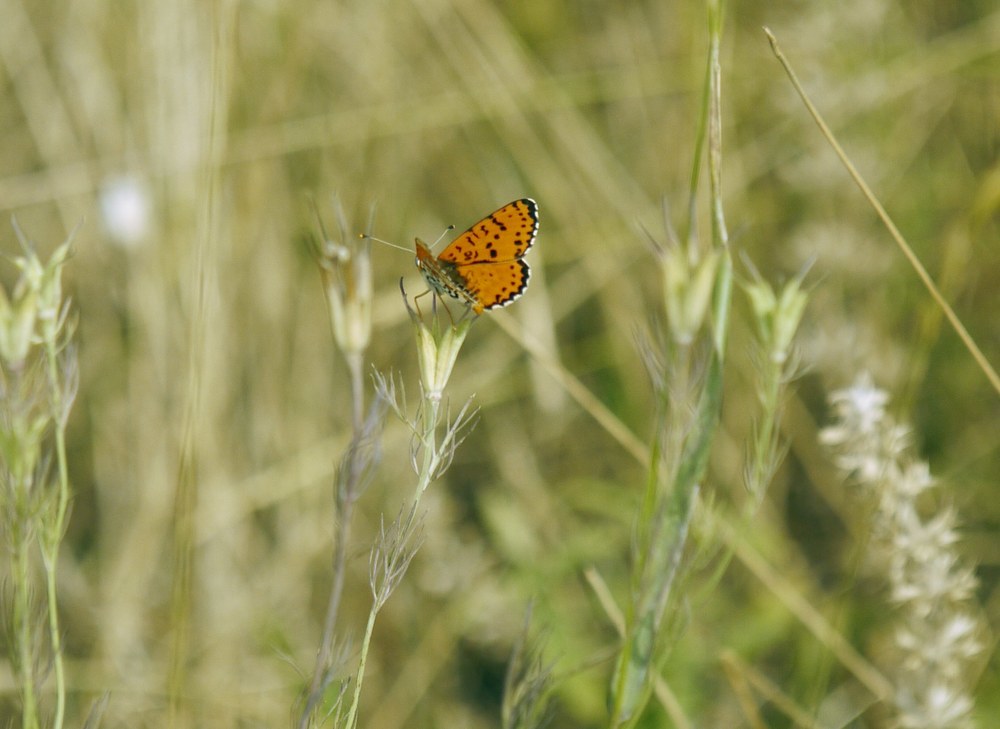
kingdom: Animalia
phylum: Arthropoda
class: Insecta
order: Lepidoptera
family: Nymphalidae
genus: Melitaea
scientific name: Melitaea didyma
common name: Spotted fritillary
